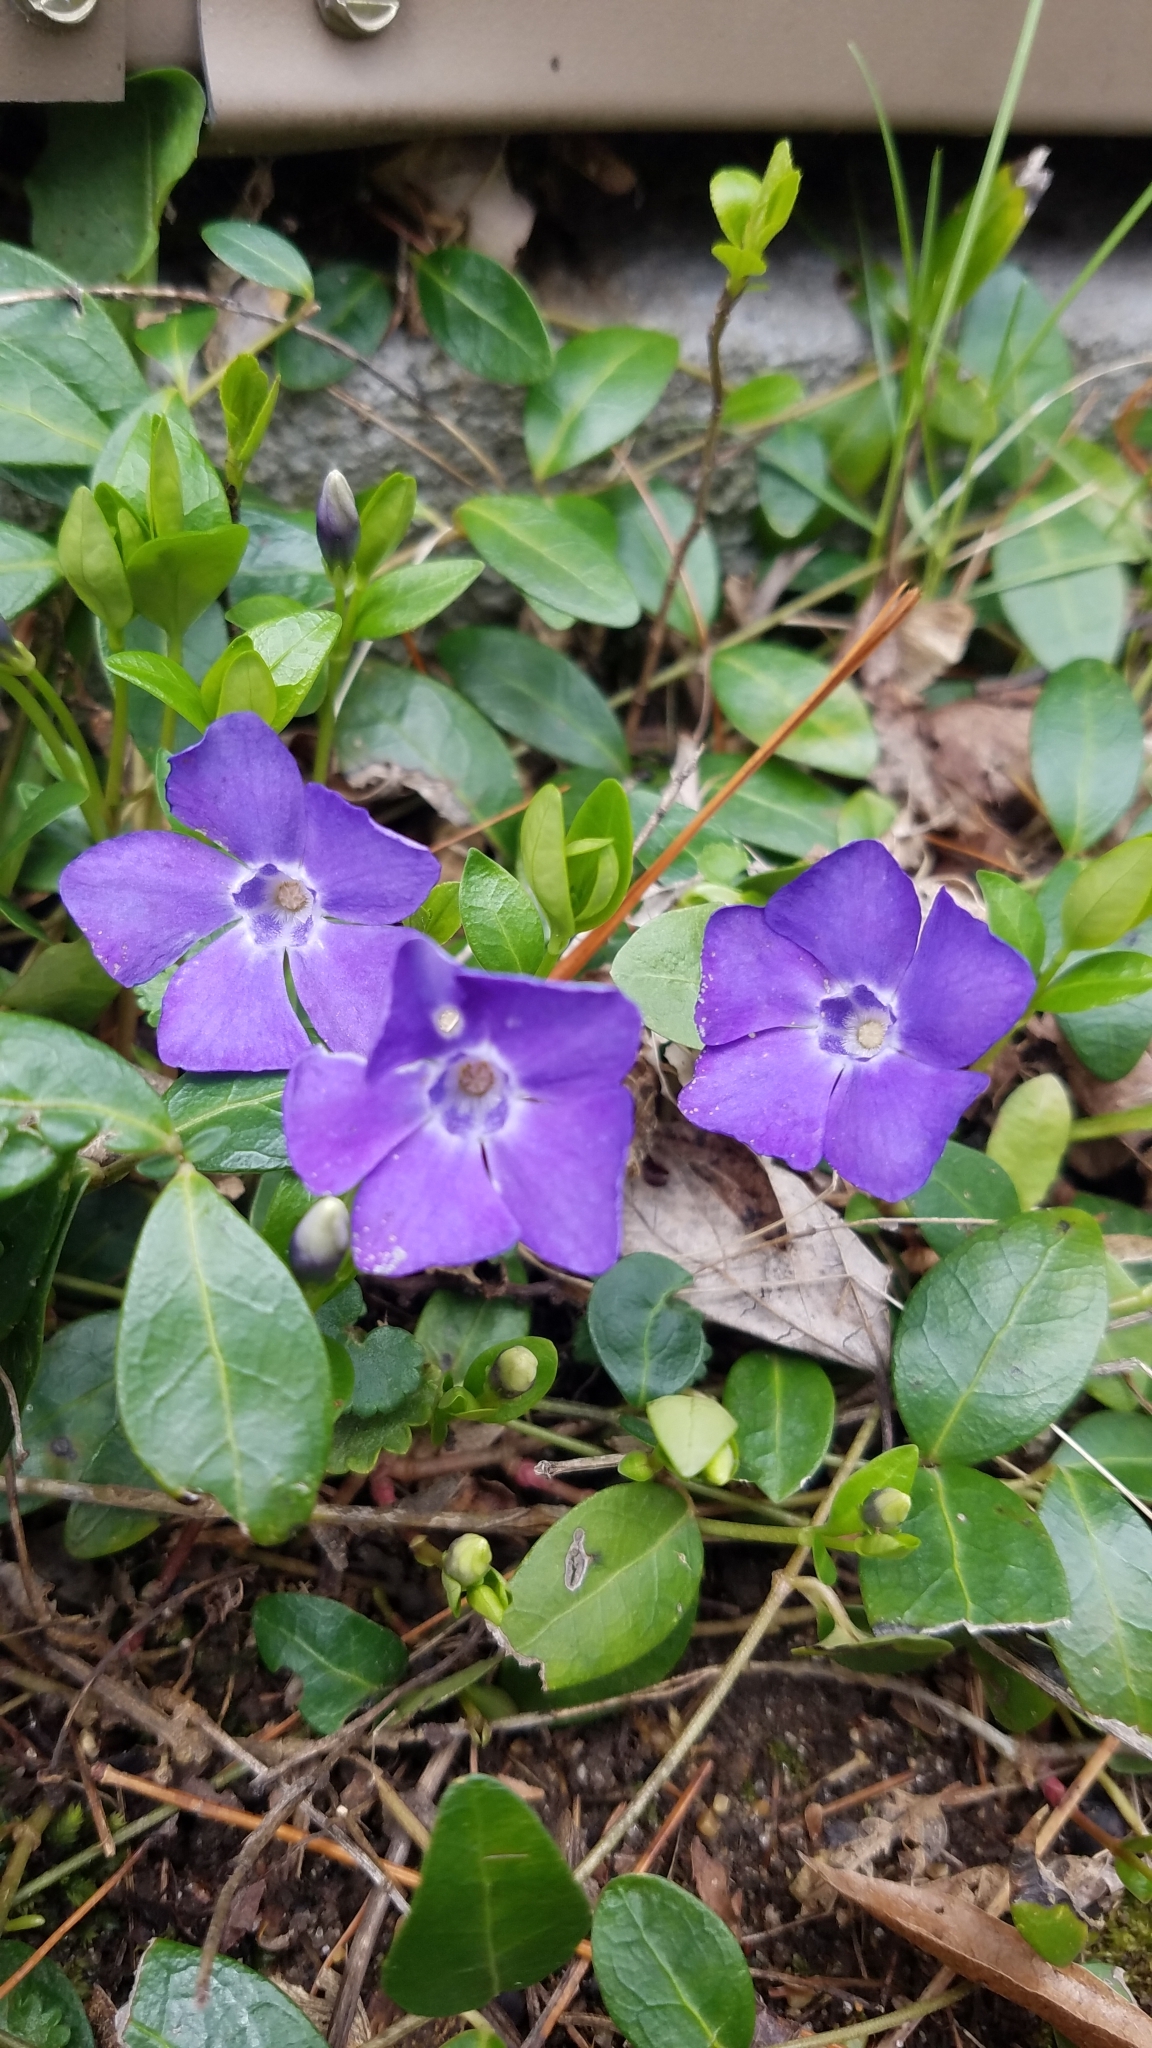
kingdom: Plantae
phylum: Tracheophyta
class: Magnoliopsida
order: Gentianales
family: Apocynaceae
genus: Vinca
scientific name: Vinca minor
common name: Lesser periwinkle
